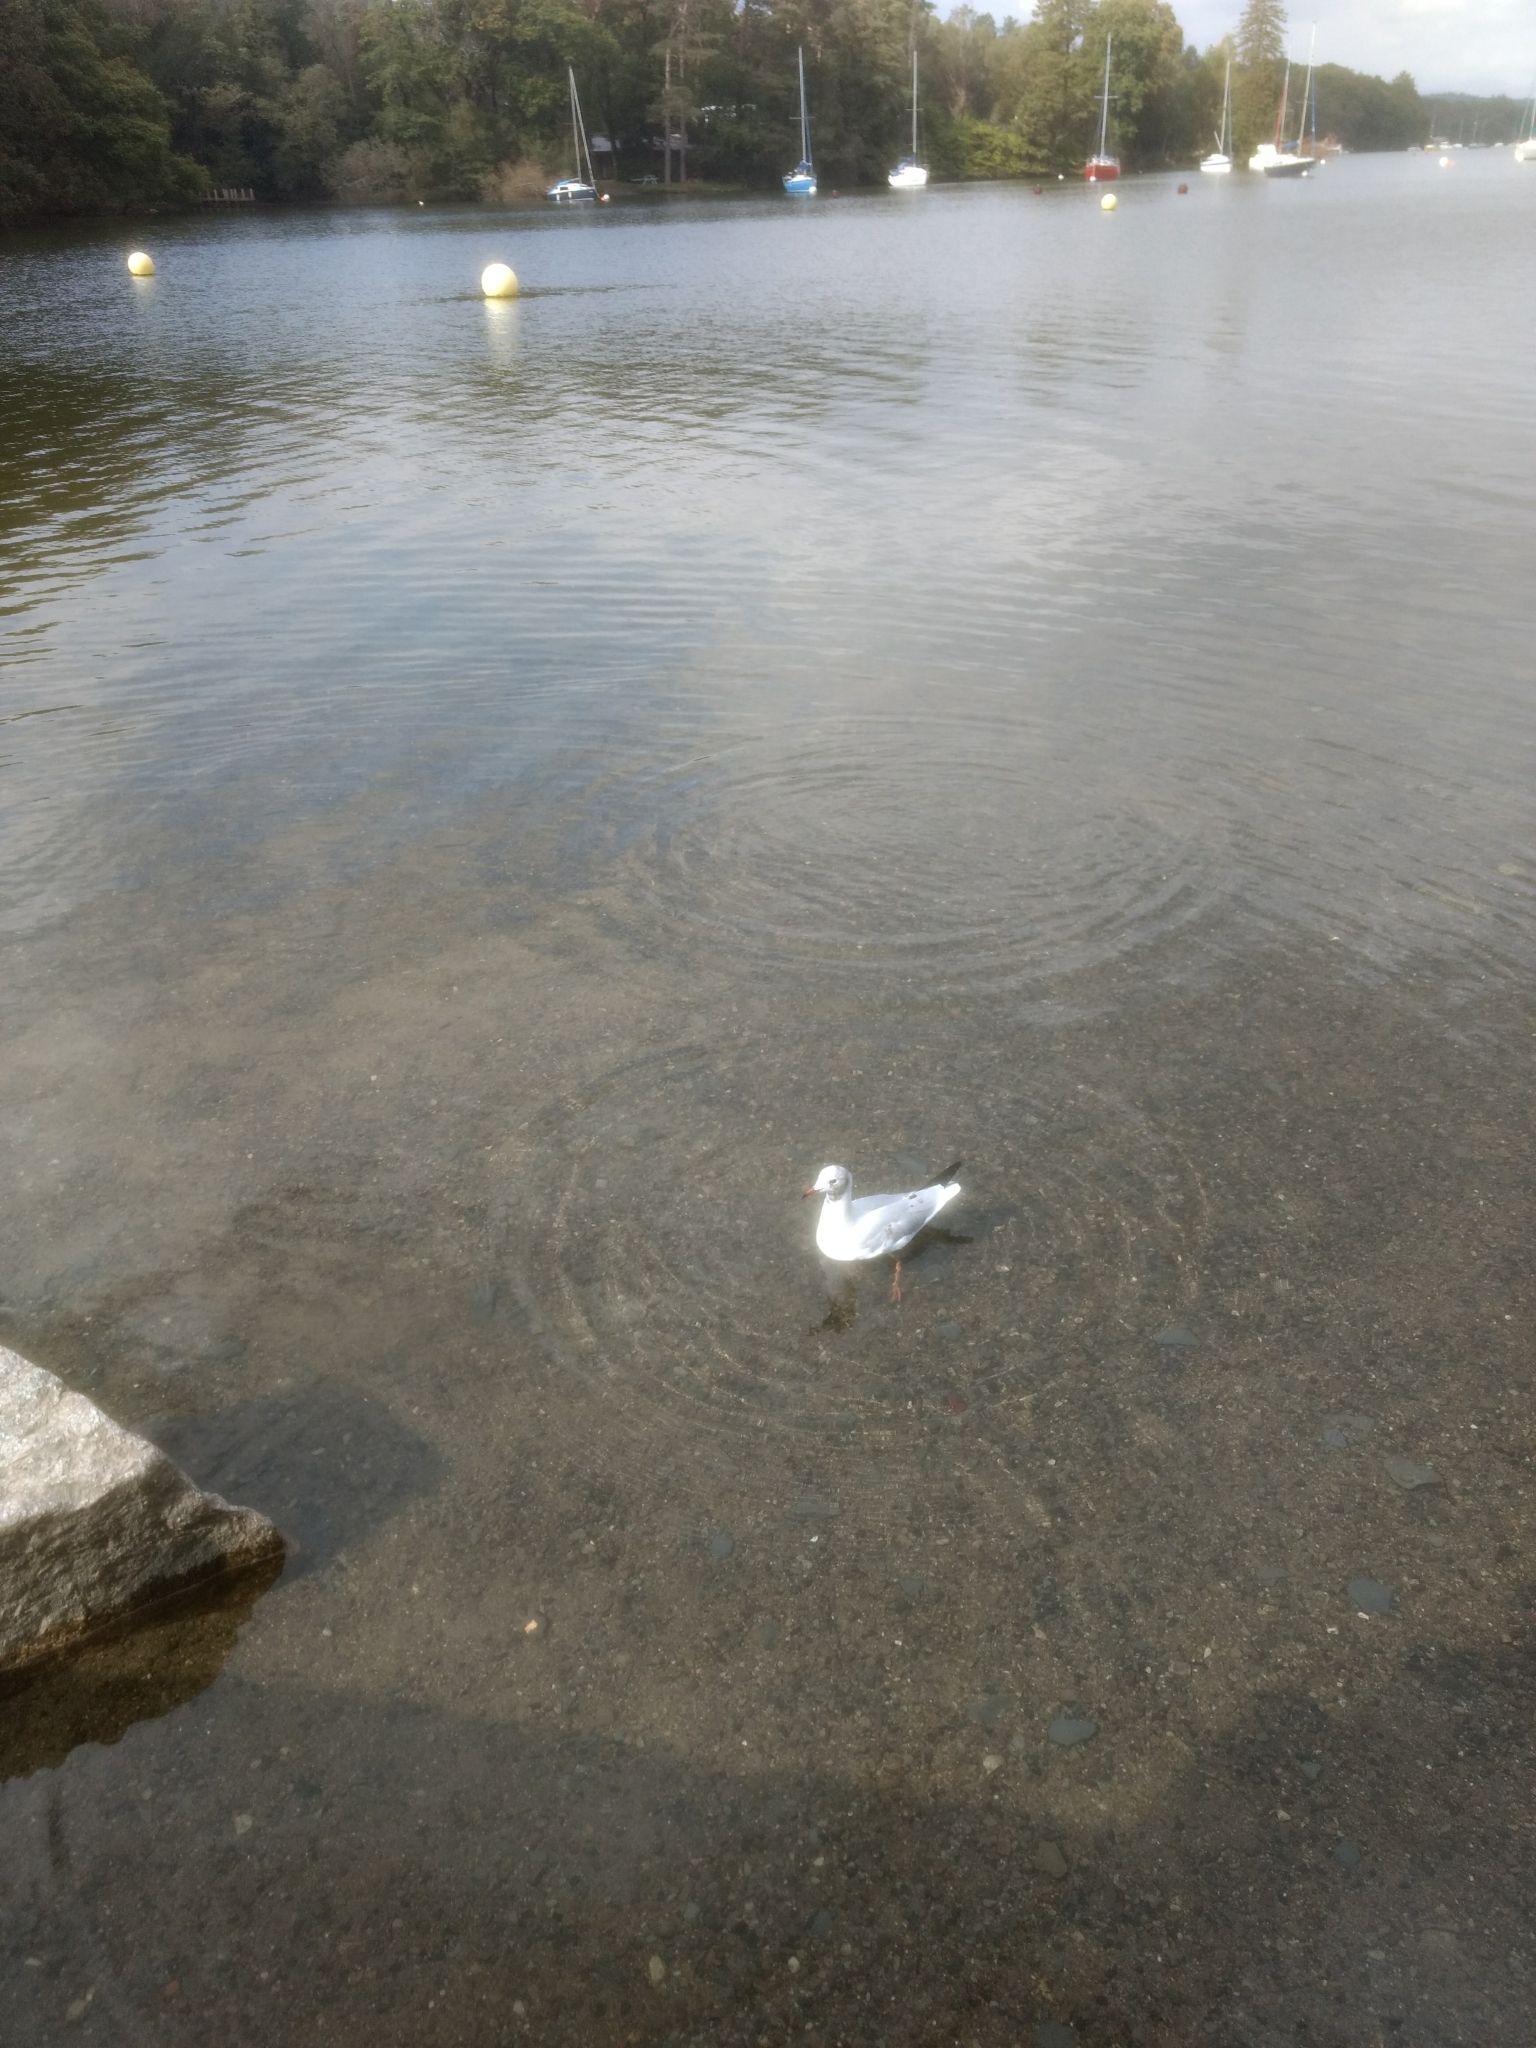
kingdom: Animalia
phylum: Chordata
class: Aves
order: Charadriiformes
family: Laridae
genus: Chroicocephalus
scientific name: Chroicocephalus ridibundus
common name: Black-headed gull
